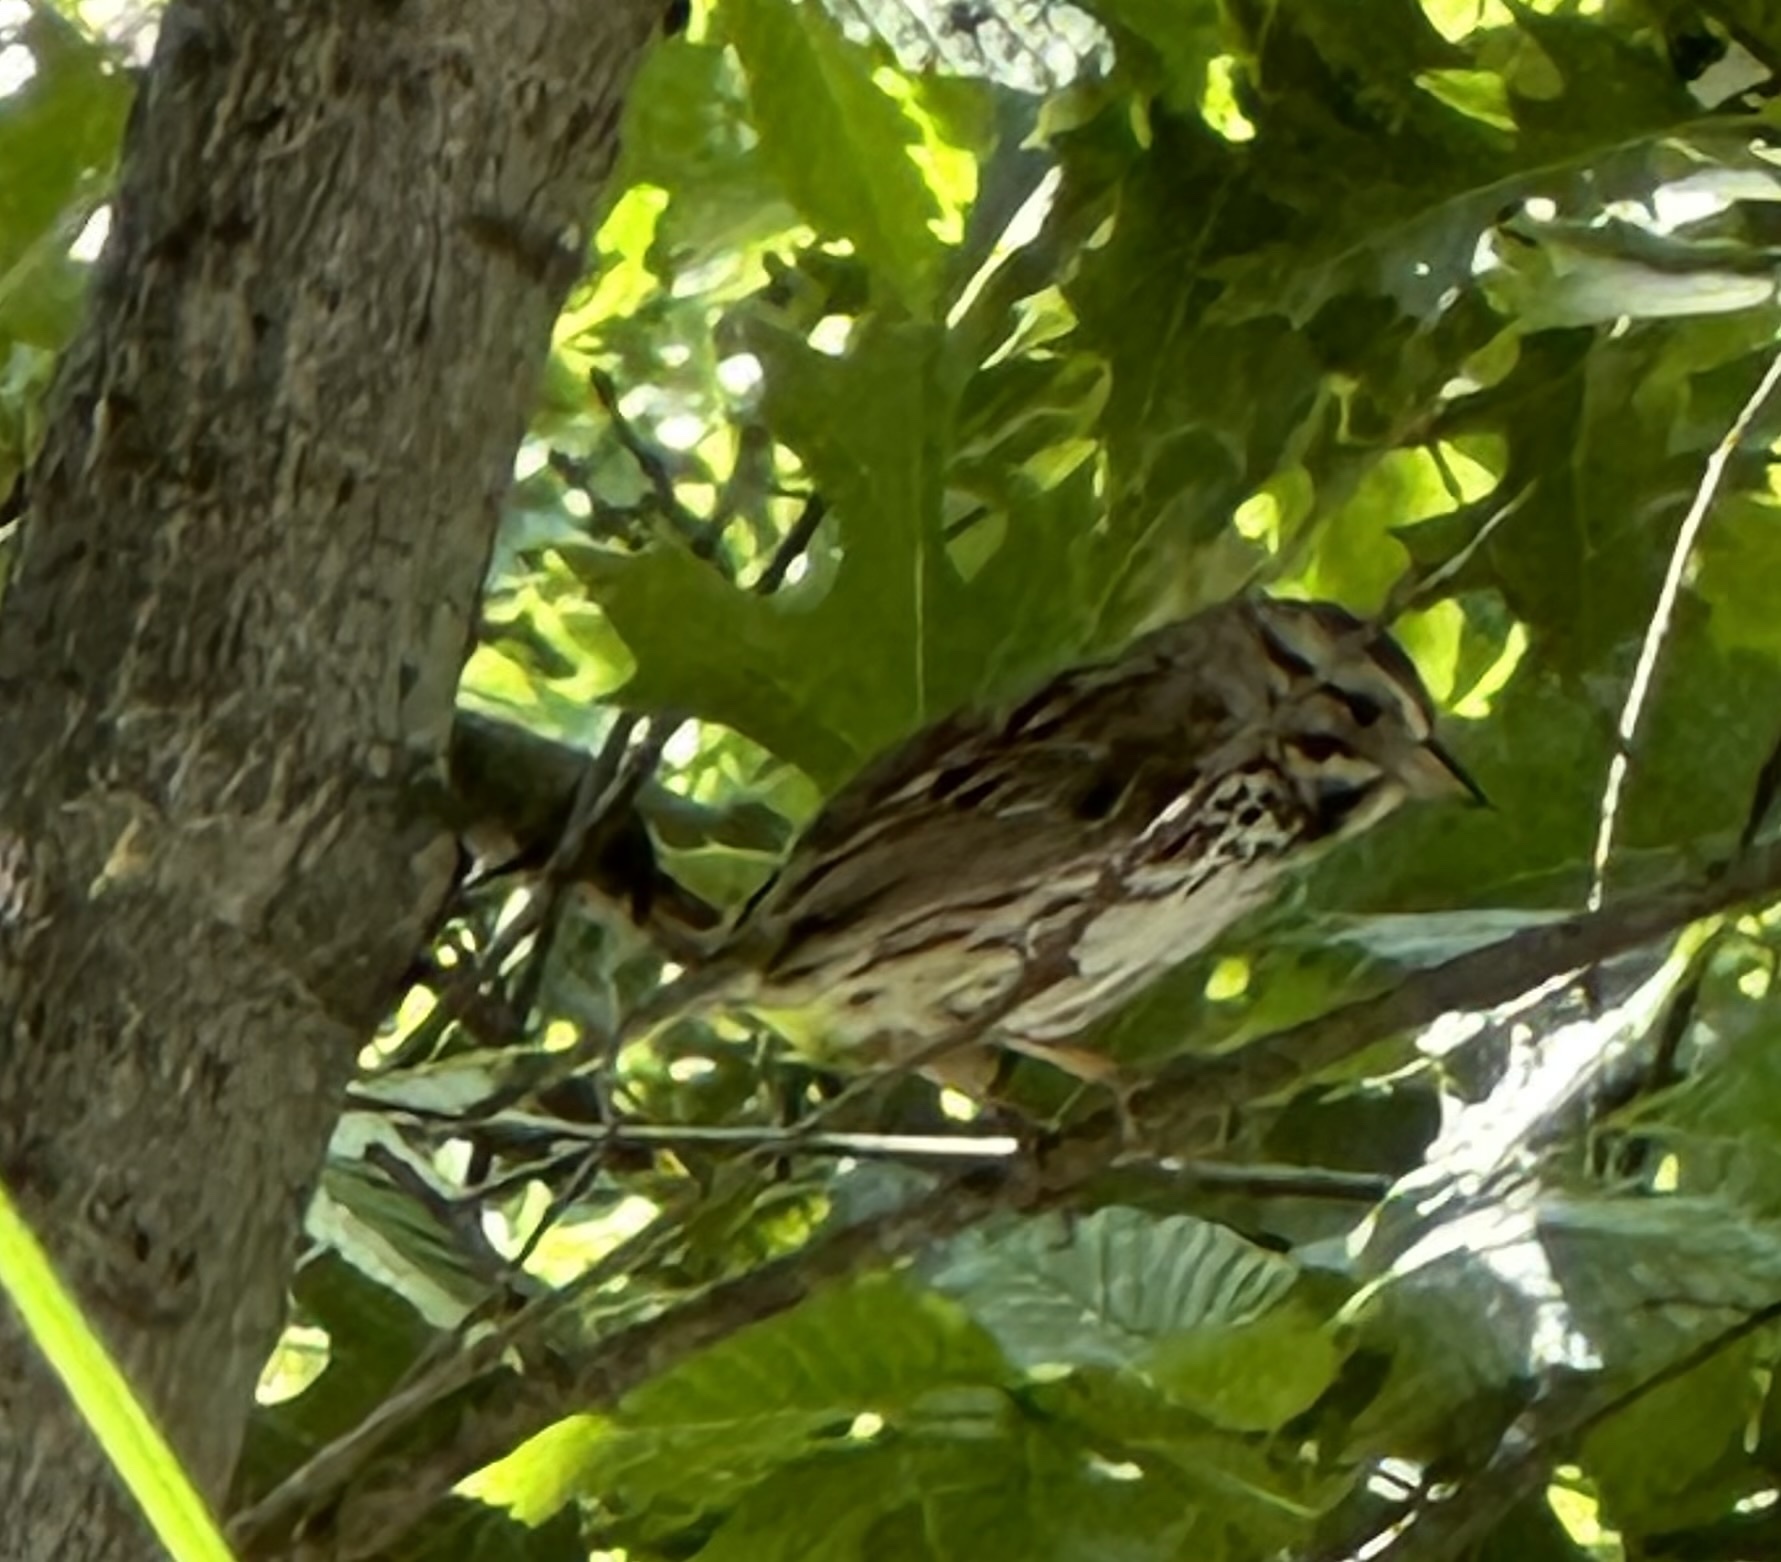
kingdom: Animalia
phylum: Chordata
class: Aves
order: Passeriformes
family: Passerellidae
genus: Melospiza
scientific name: Melospiza melodia
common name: Song sparrow
